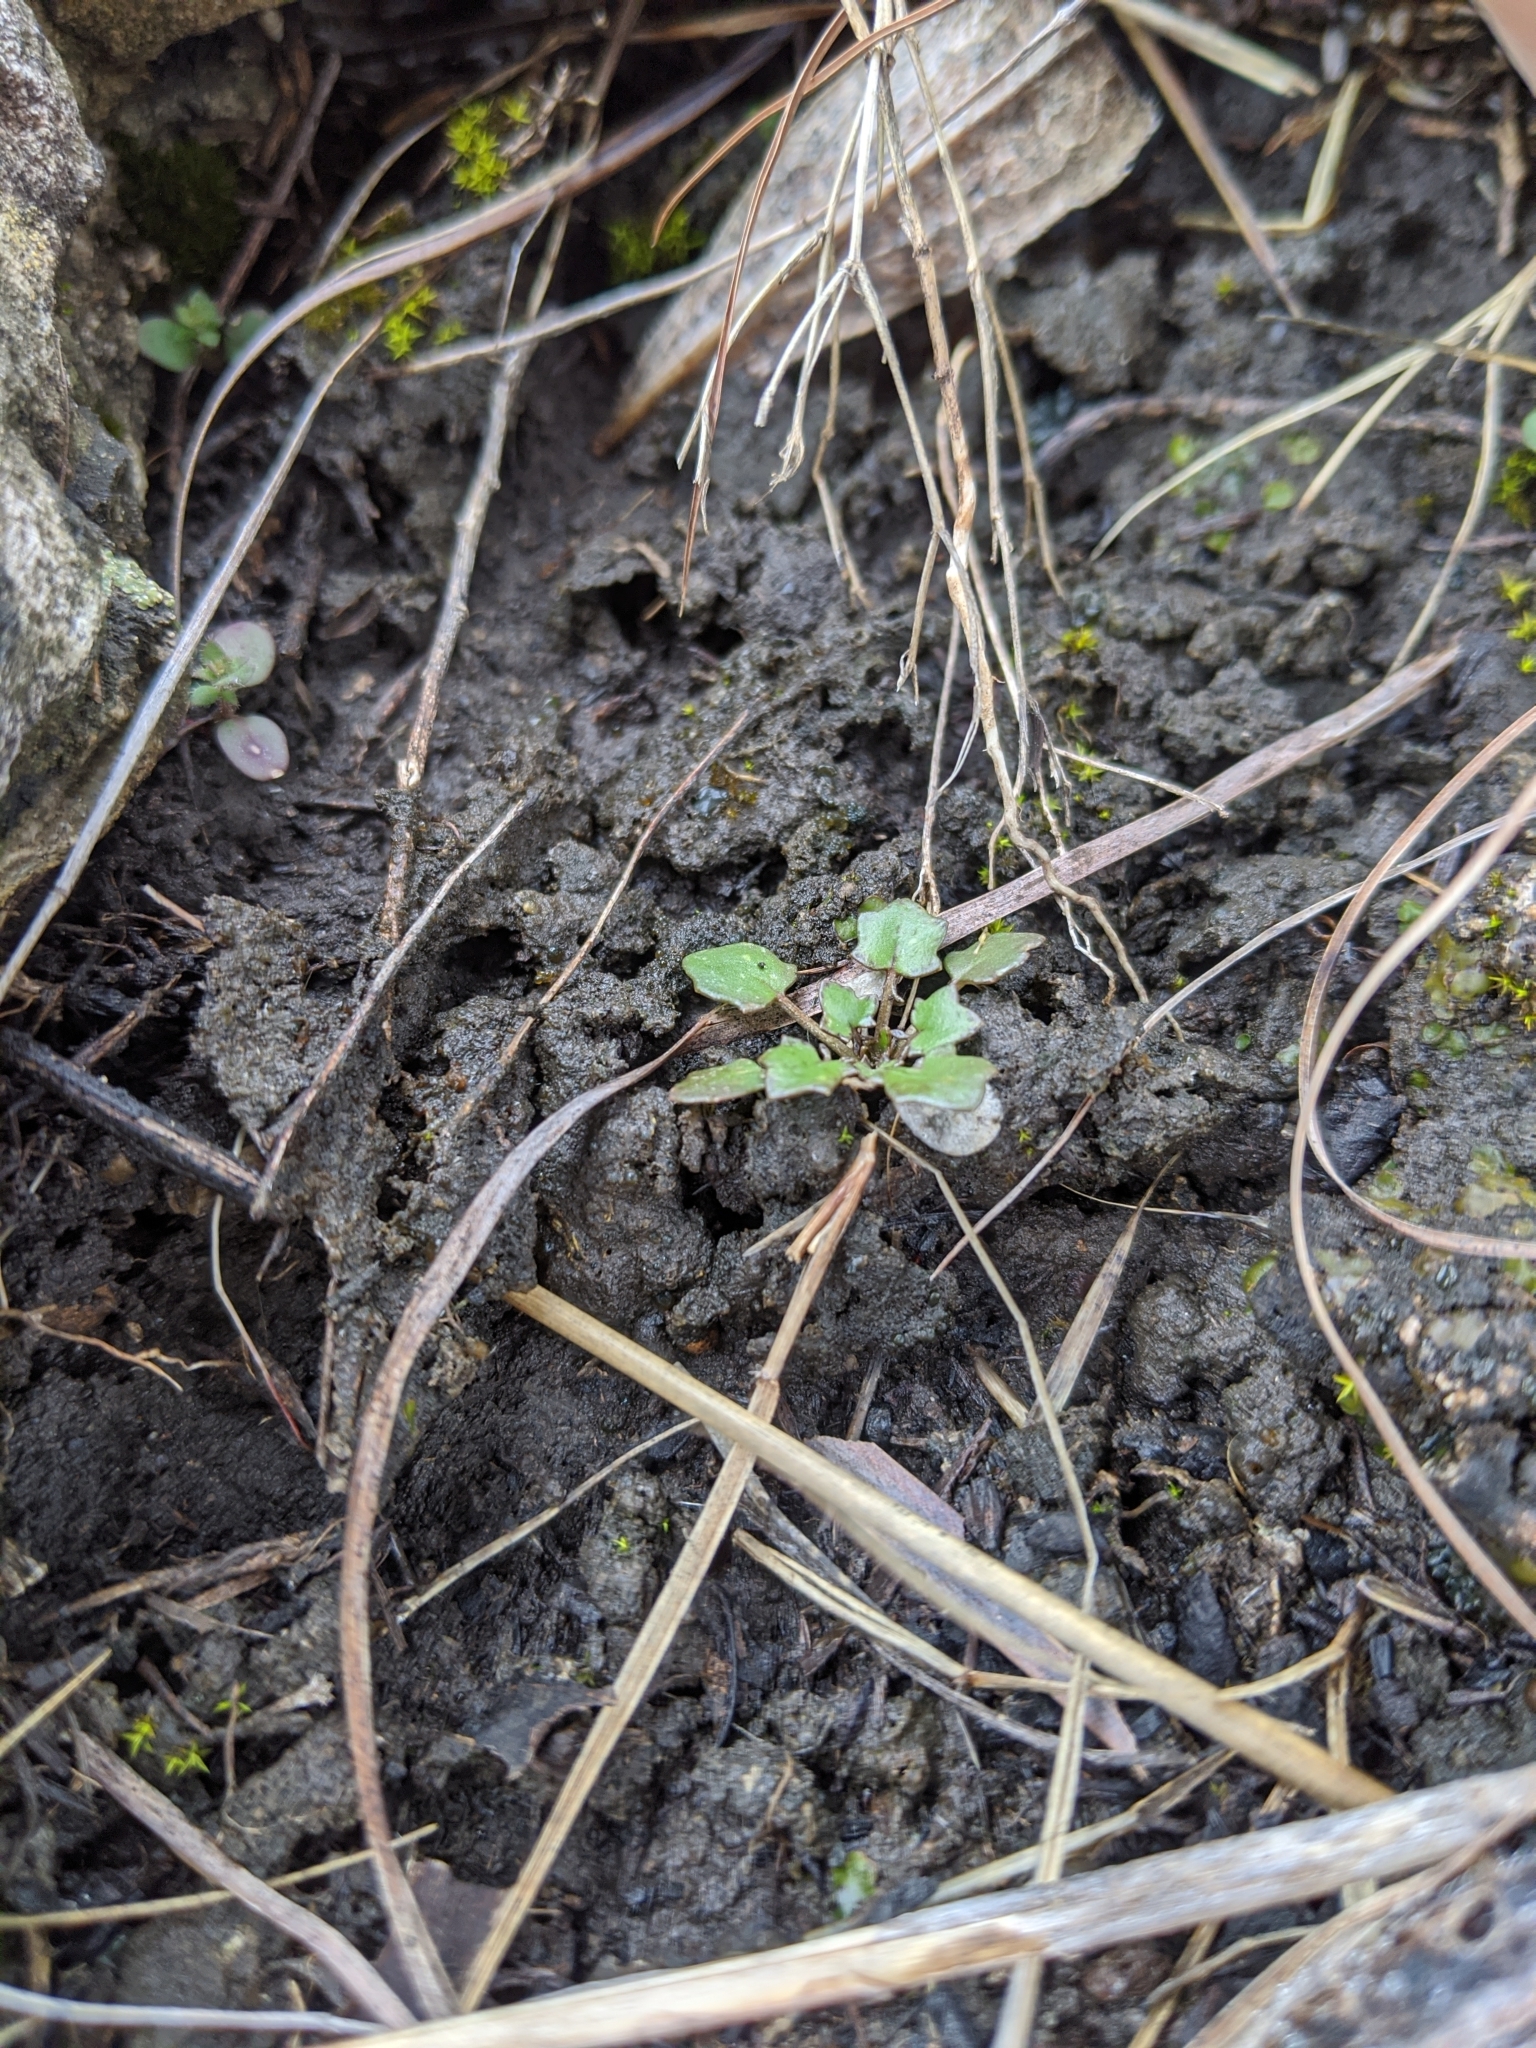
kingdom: Plantae
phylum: Tracheophyta
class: Magnoliopsida
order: Brassicales
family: Brassicaceae
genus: Leavenworthia
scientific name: Leavenworthia uniflora
